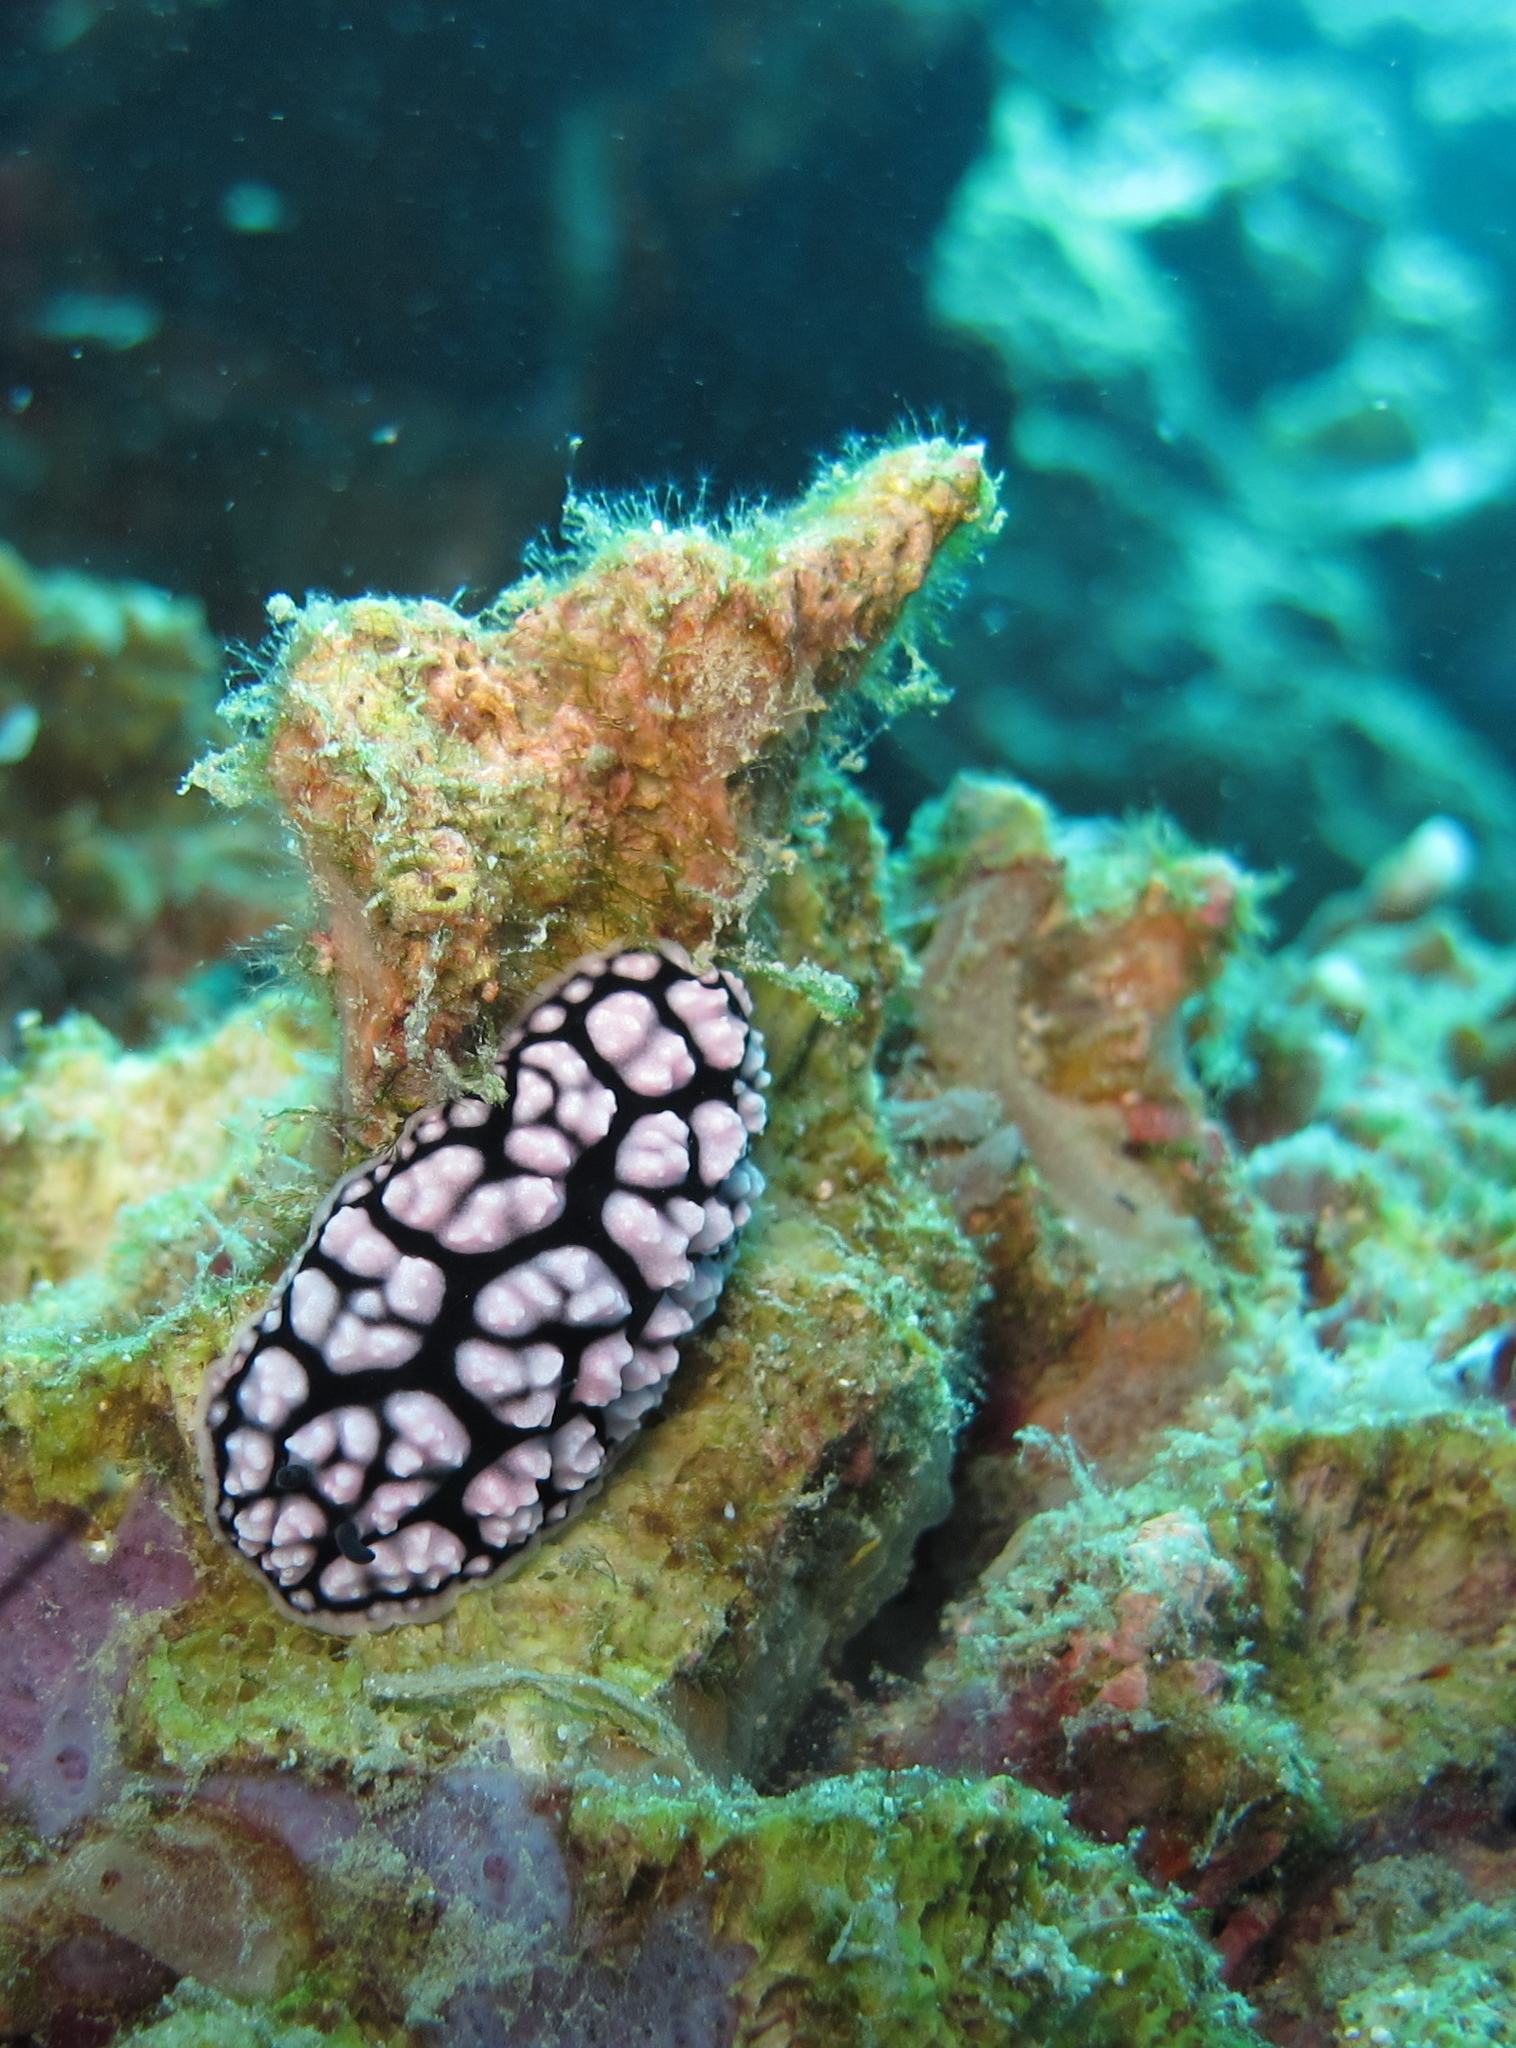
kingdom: Animalia
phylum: Mollusca
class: Gastropoda
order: Nudibranchia
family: Phyllidiidae
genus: Phyllidiella
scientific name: Phyllidiella pustulosa
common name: Pustular phyllidia
